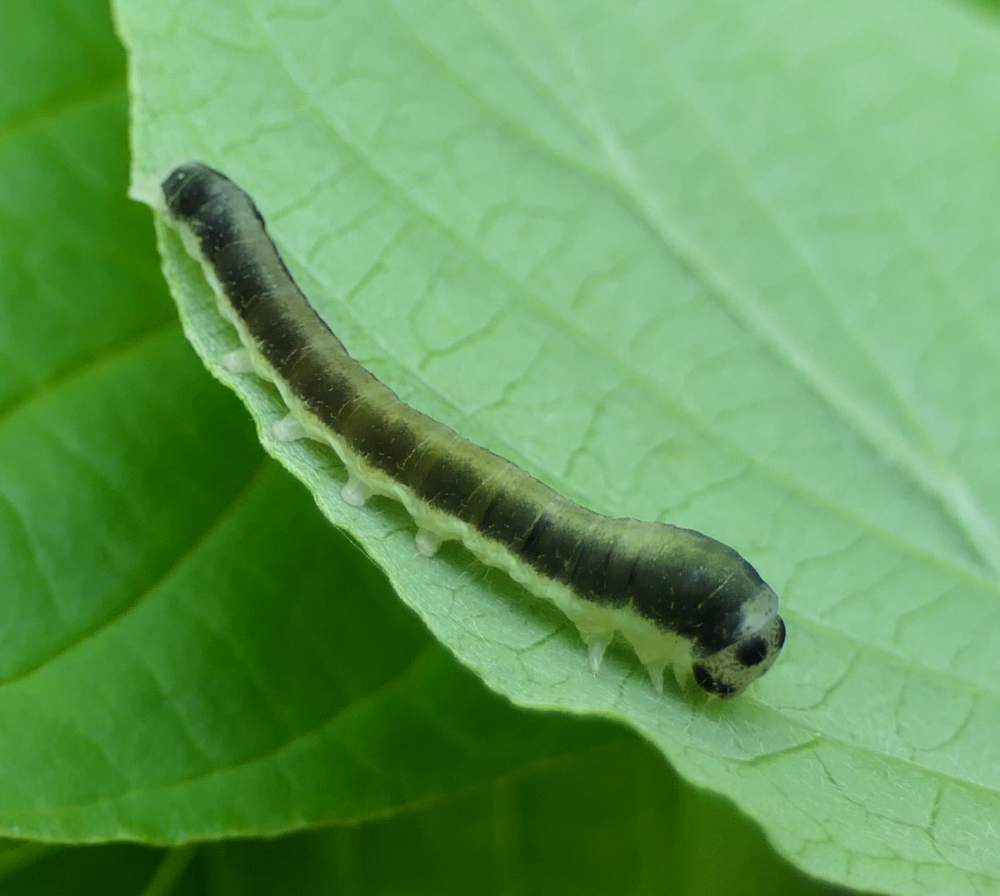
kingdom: Animalia
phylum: Arthropoda
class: Insecta
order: Lepidoptera
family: Drepanidae
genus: Euthyatira
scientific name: Euthyatira pudens
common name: Dogwood thyatirid moth
